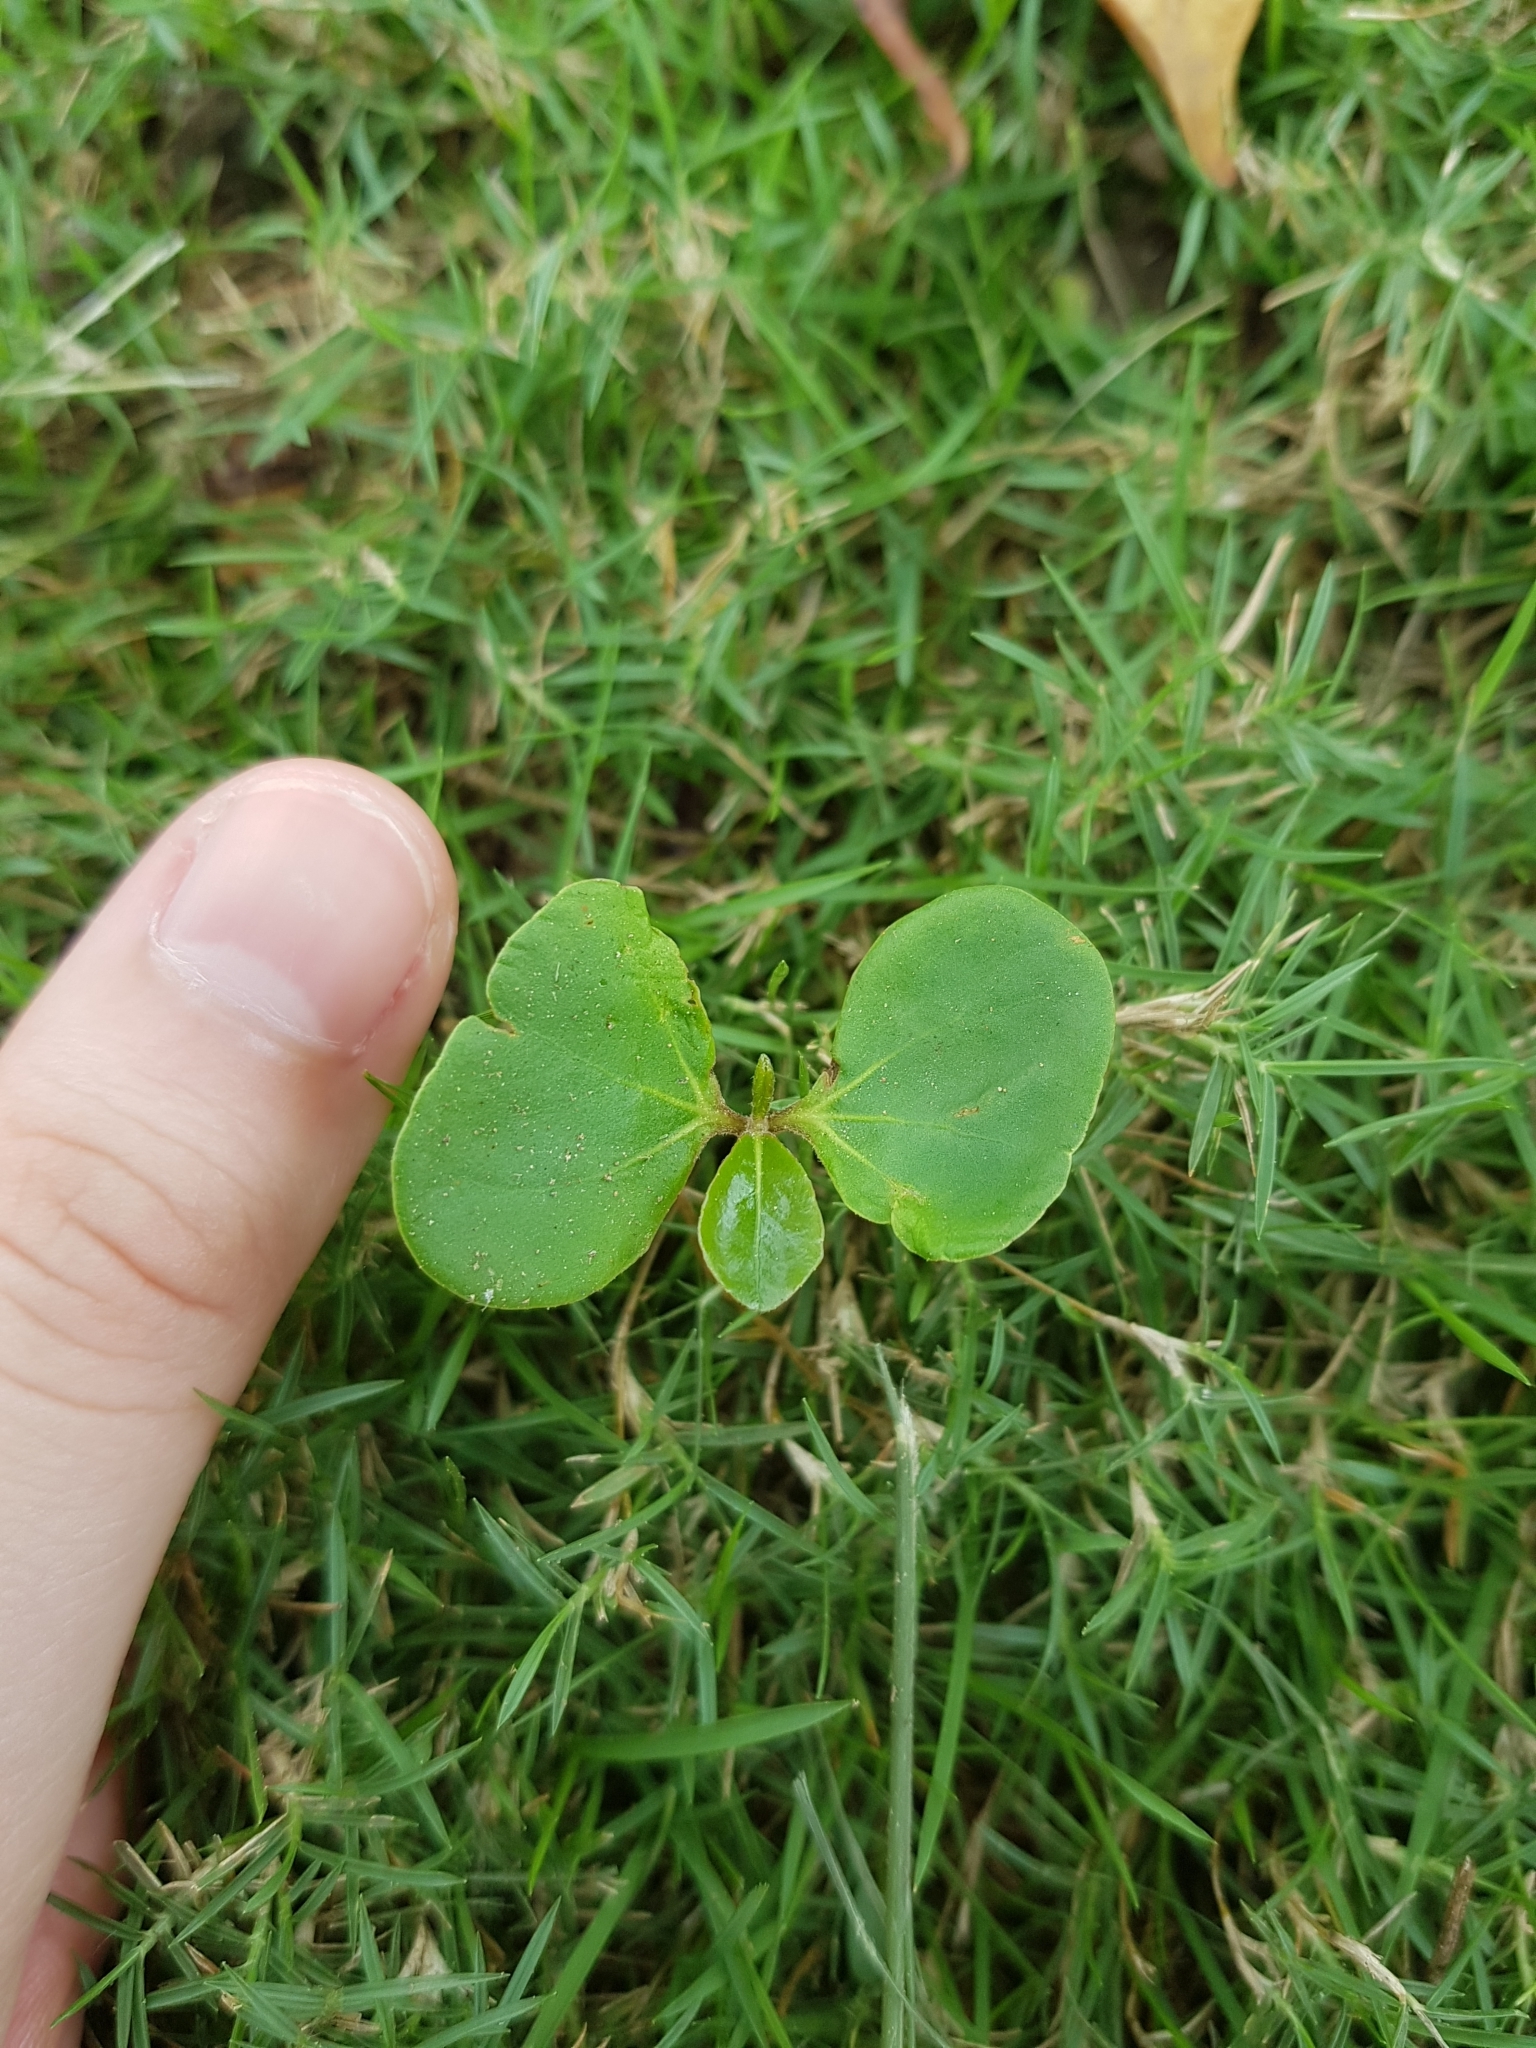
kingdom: Plantae
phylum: Tracheophyta
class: Magnoliopsida
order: Myrtales
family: Combretaceae
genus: Terminalia
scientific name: Terminalia neotaliala
